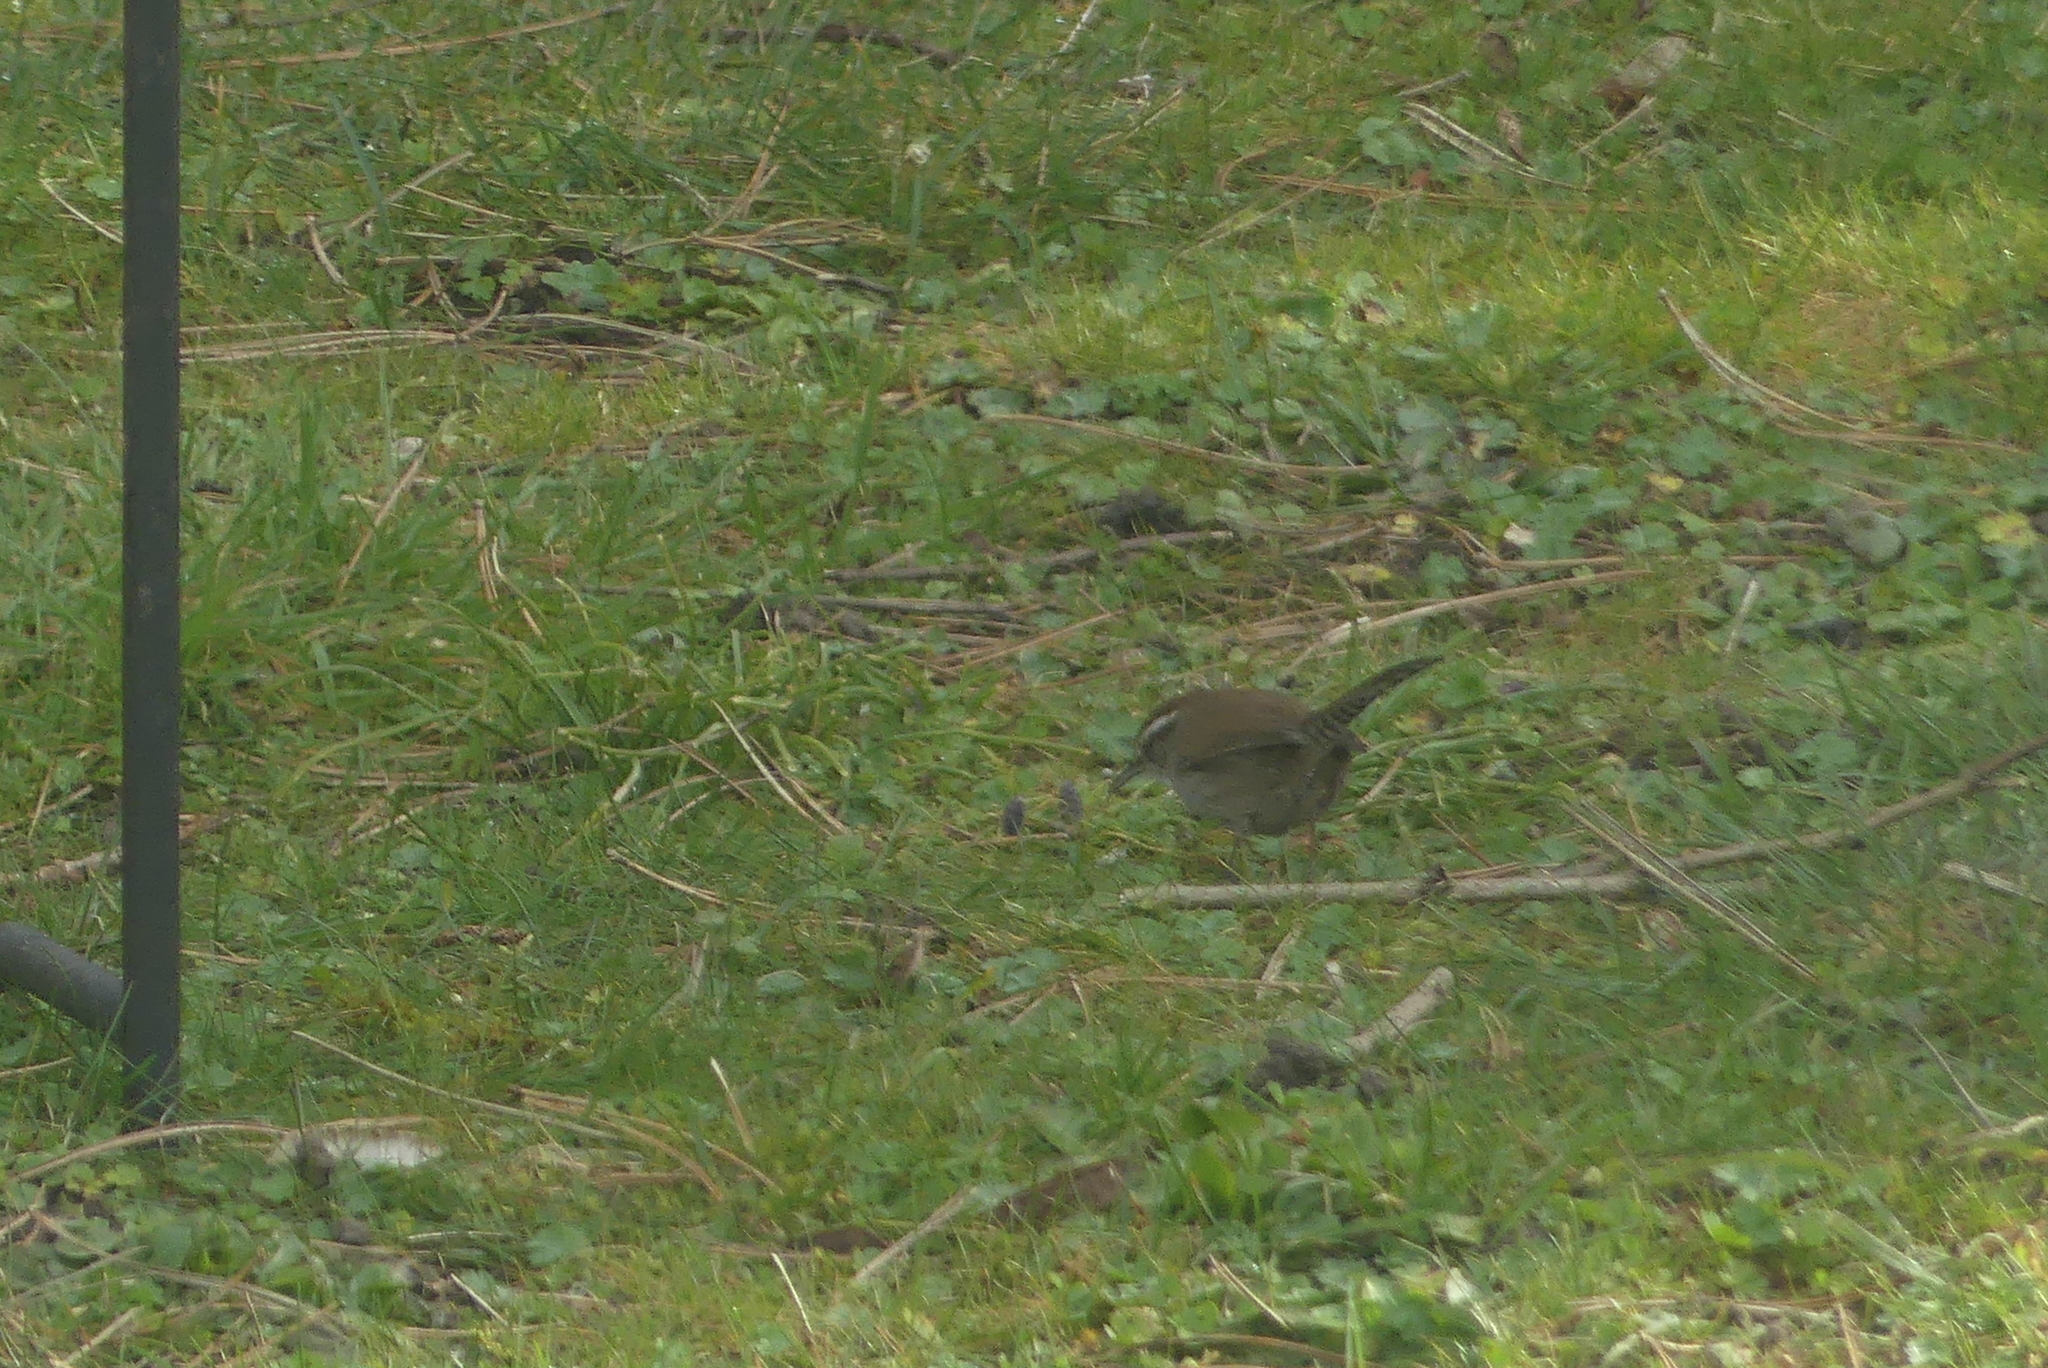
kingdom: Animalia
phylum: Chordata
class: Aves
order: Passeriformes
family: Troglodytidae
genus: Thryomanes
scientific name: Thryomanes bewickii
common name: Bewick's wren
